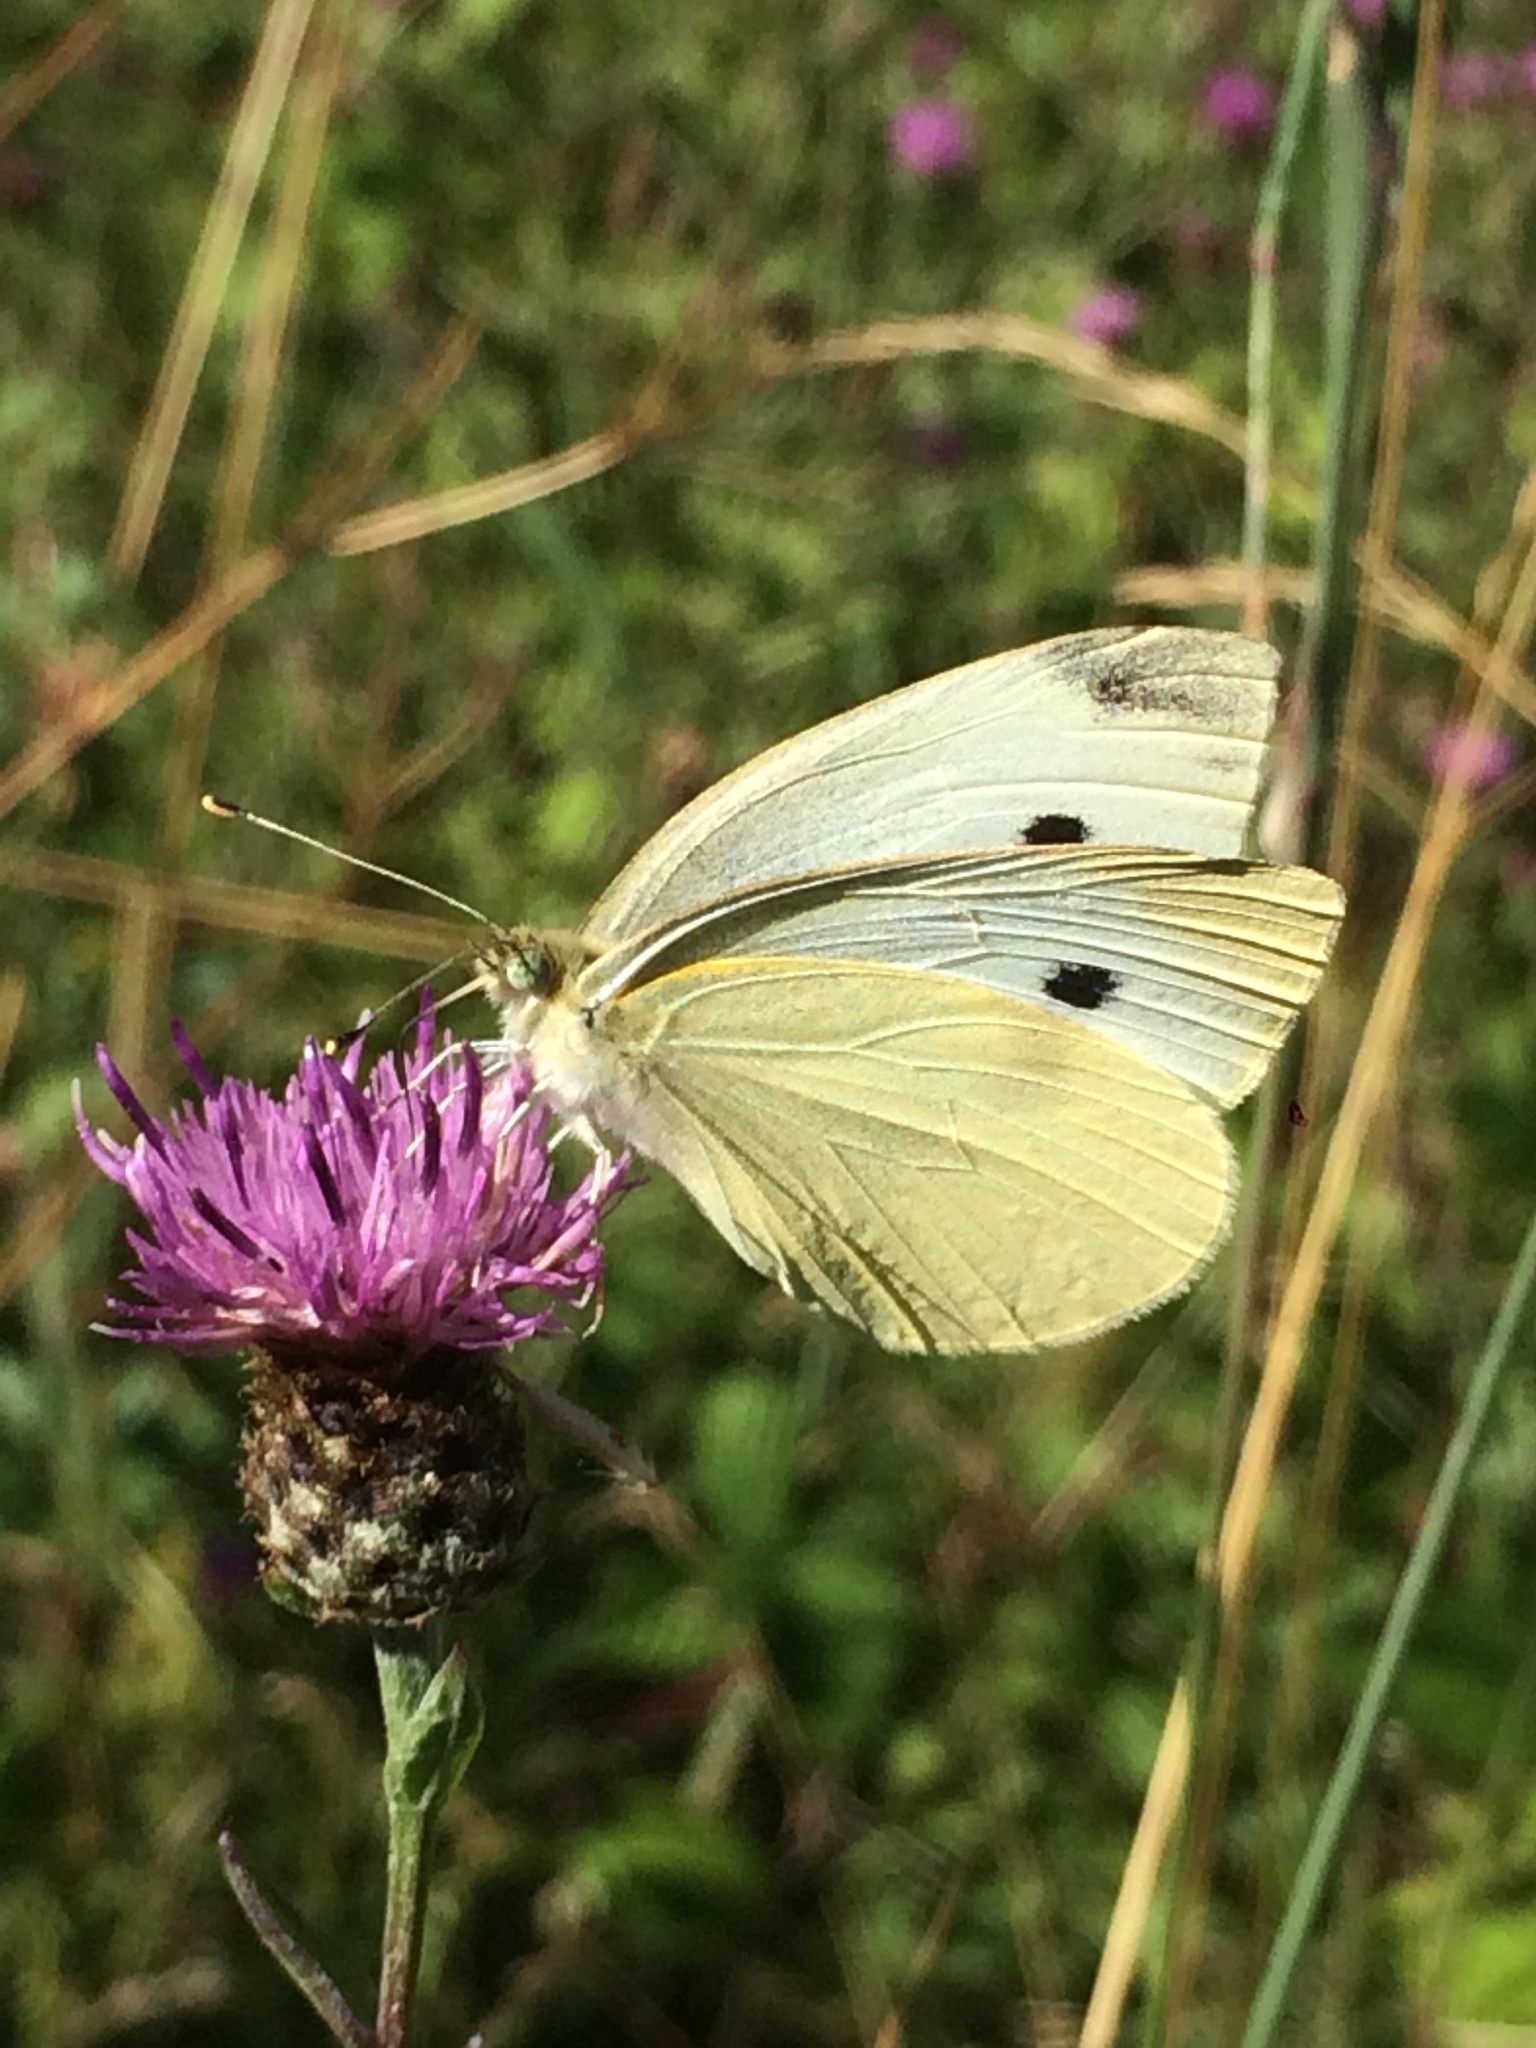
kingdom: Animalia
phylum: Arthropoda
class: Insecta
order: Lepidoptera
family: Pieridae
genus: Pieris
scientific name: Pieris rapae
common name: Small white
